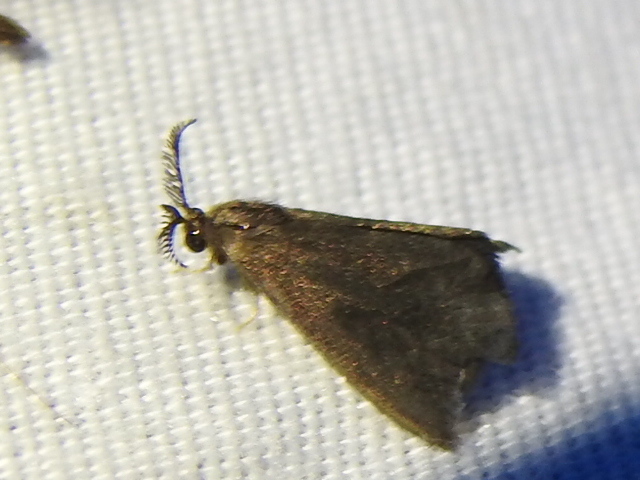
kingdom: Animalia
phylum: Arthropoda
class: Insecta
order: Lepidoptera
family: Psychidae
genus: Cryptothelea
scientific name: Cryptothelea gloverii
